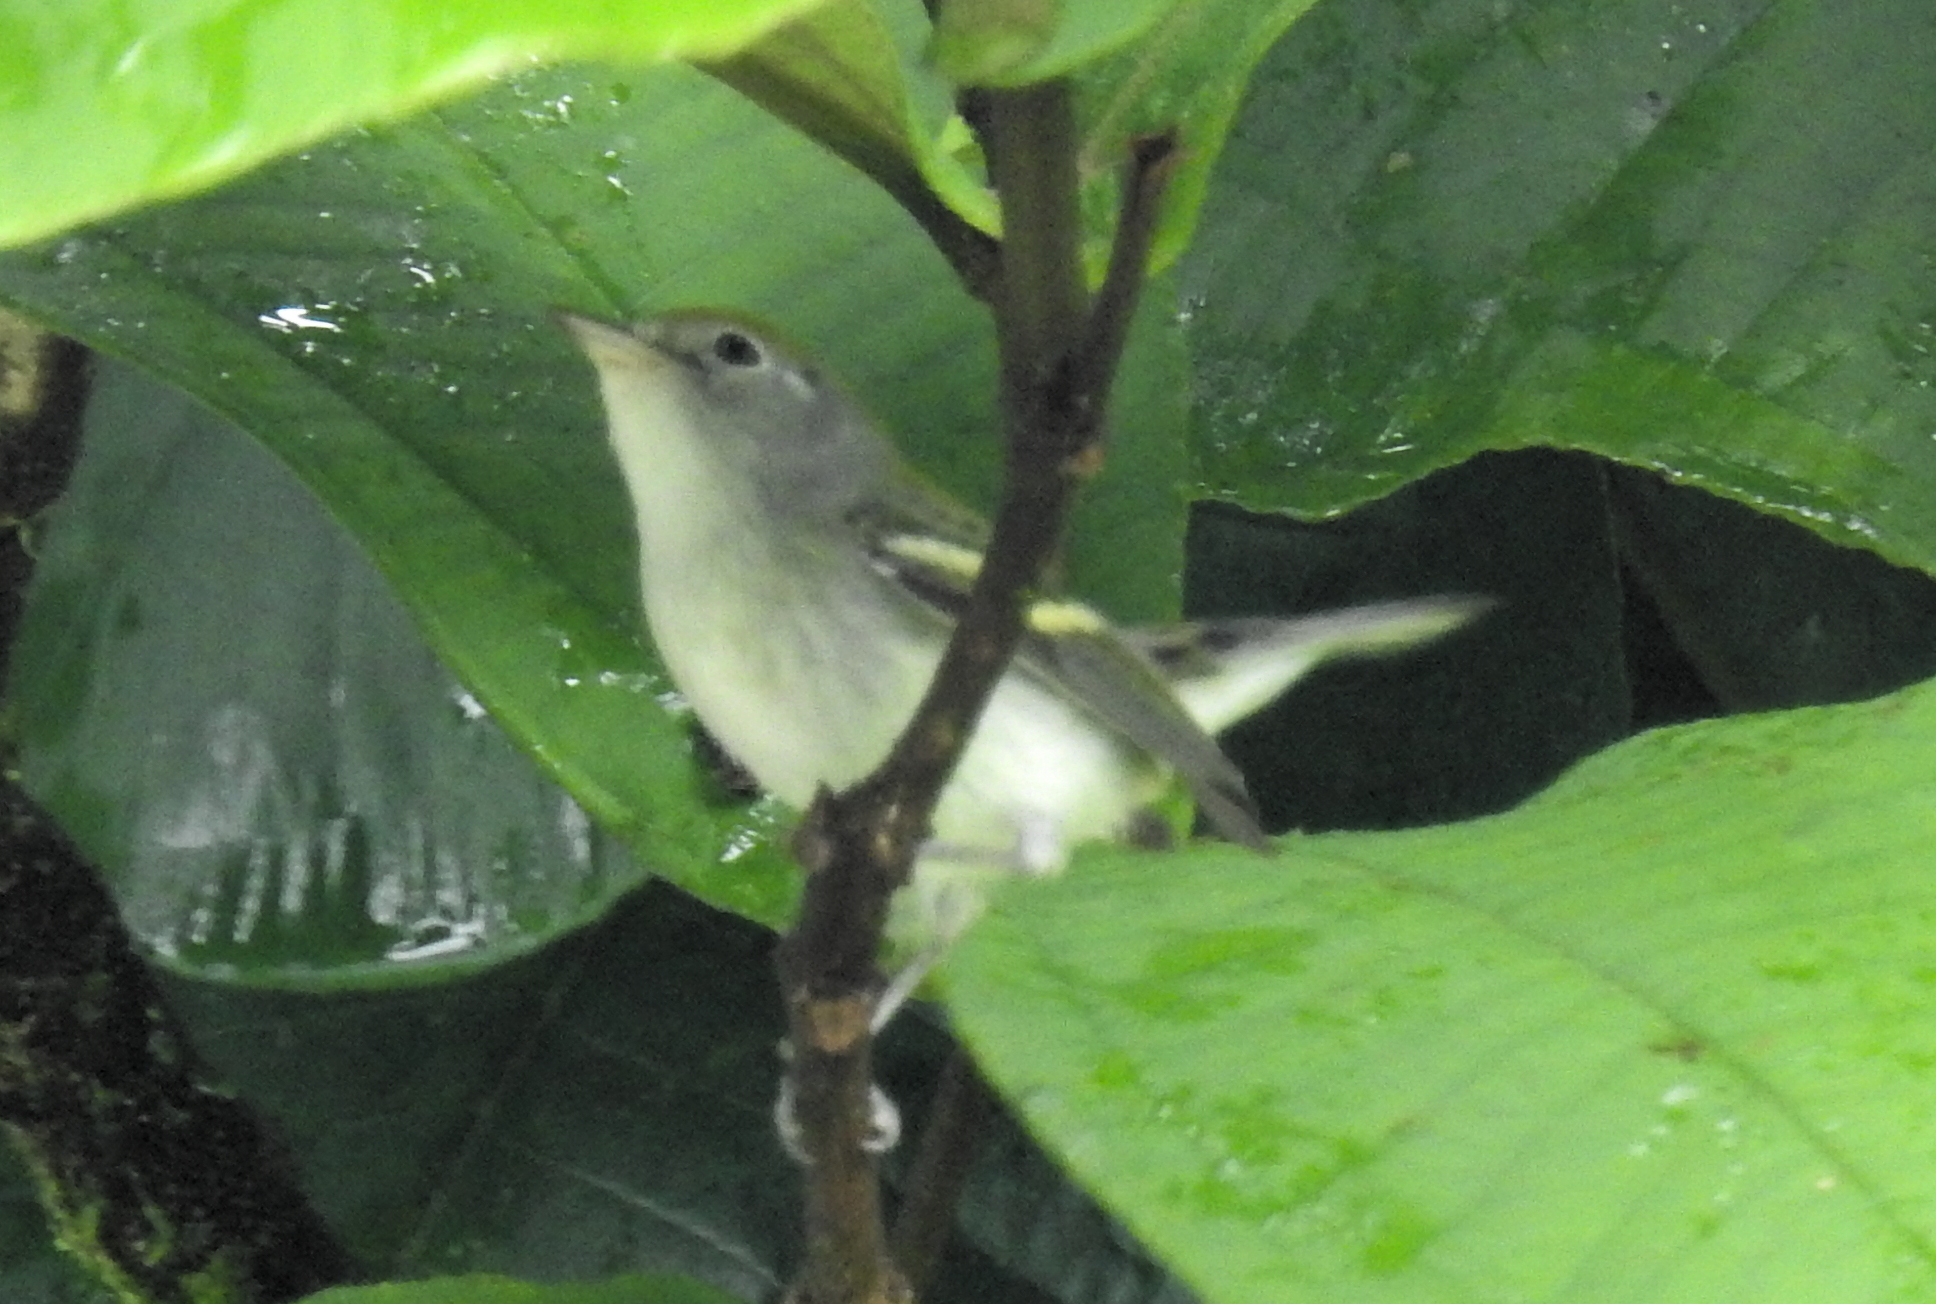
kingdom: Animalia
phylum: Chordata
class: Aves
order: Passeriformes
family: Parulidae
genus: Setophaga
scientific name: Setophaga pensylvanica
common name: Chestnut-sided warbler
